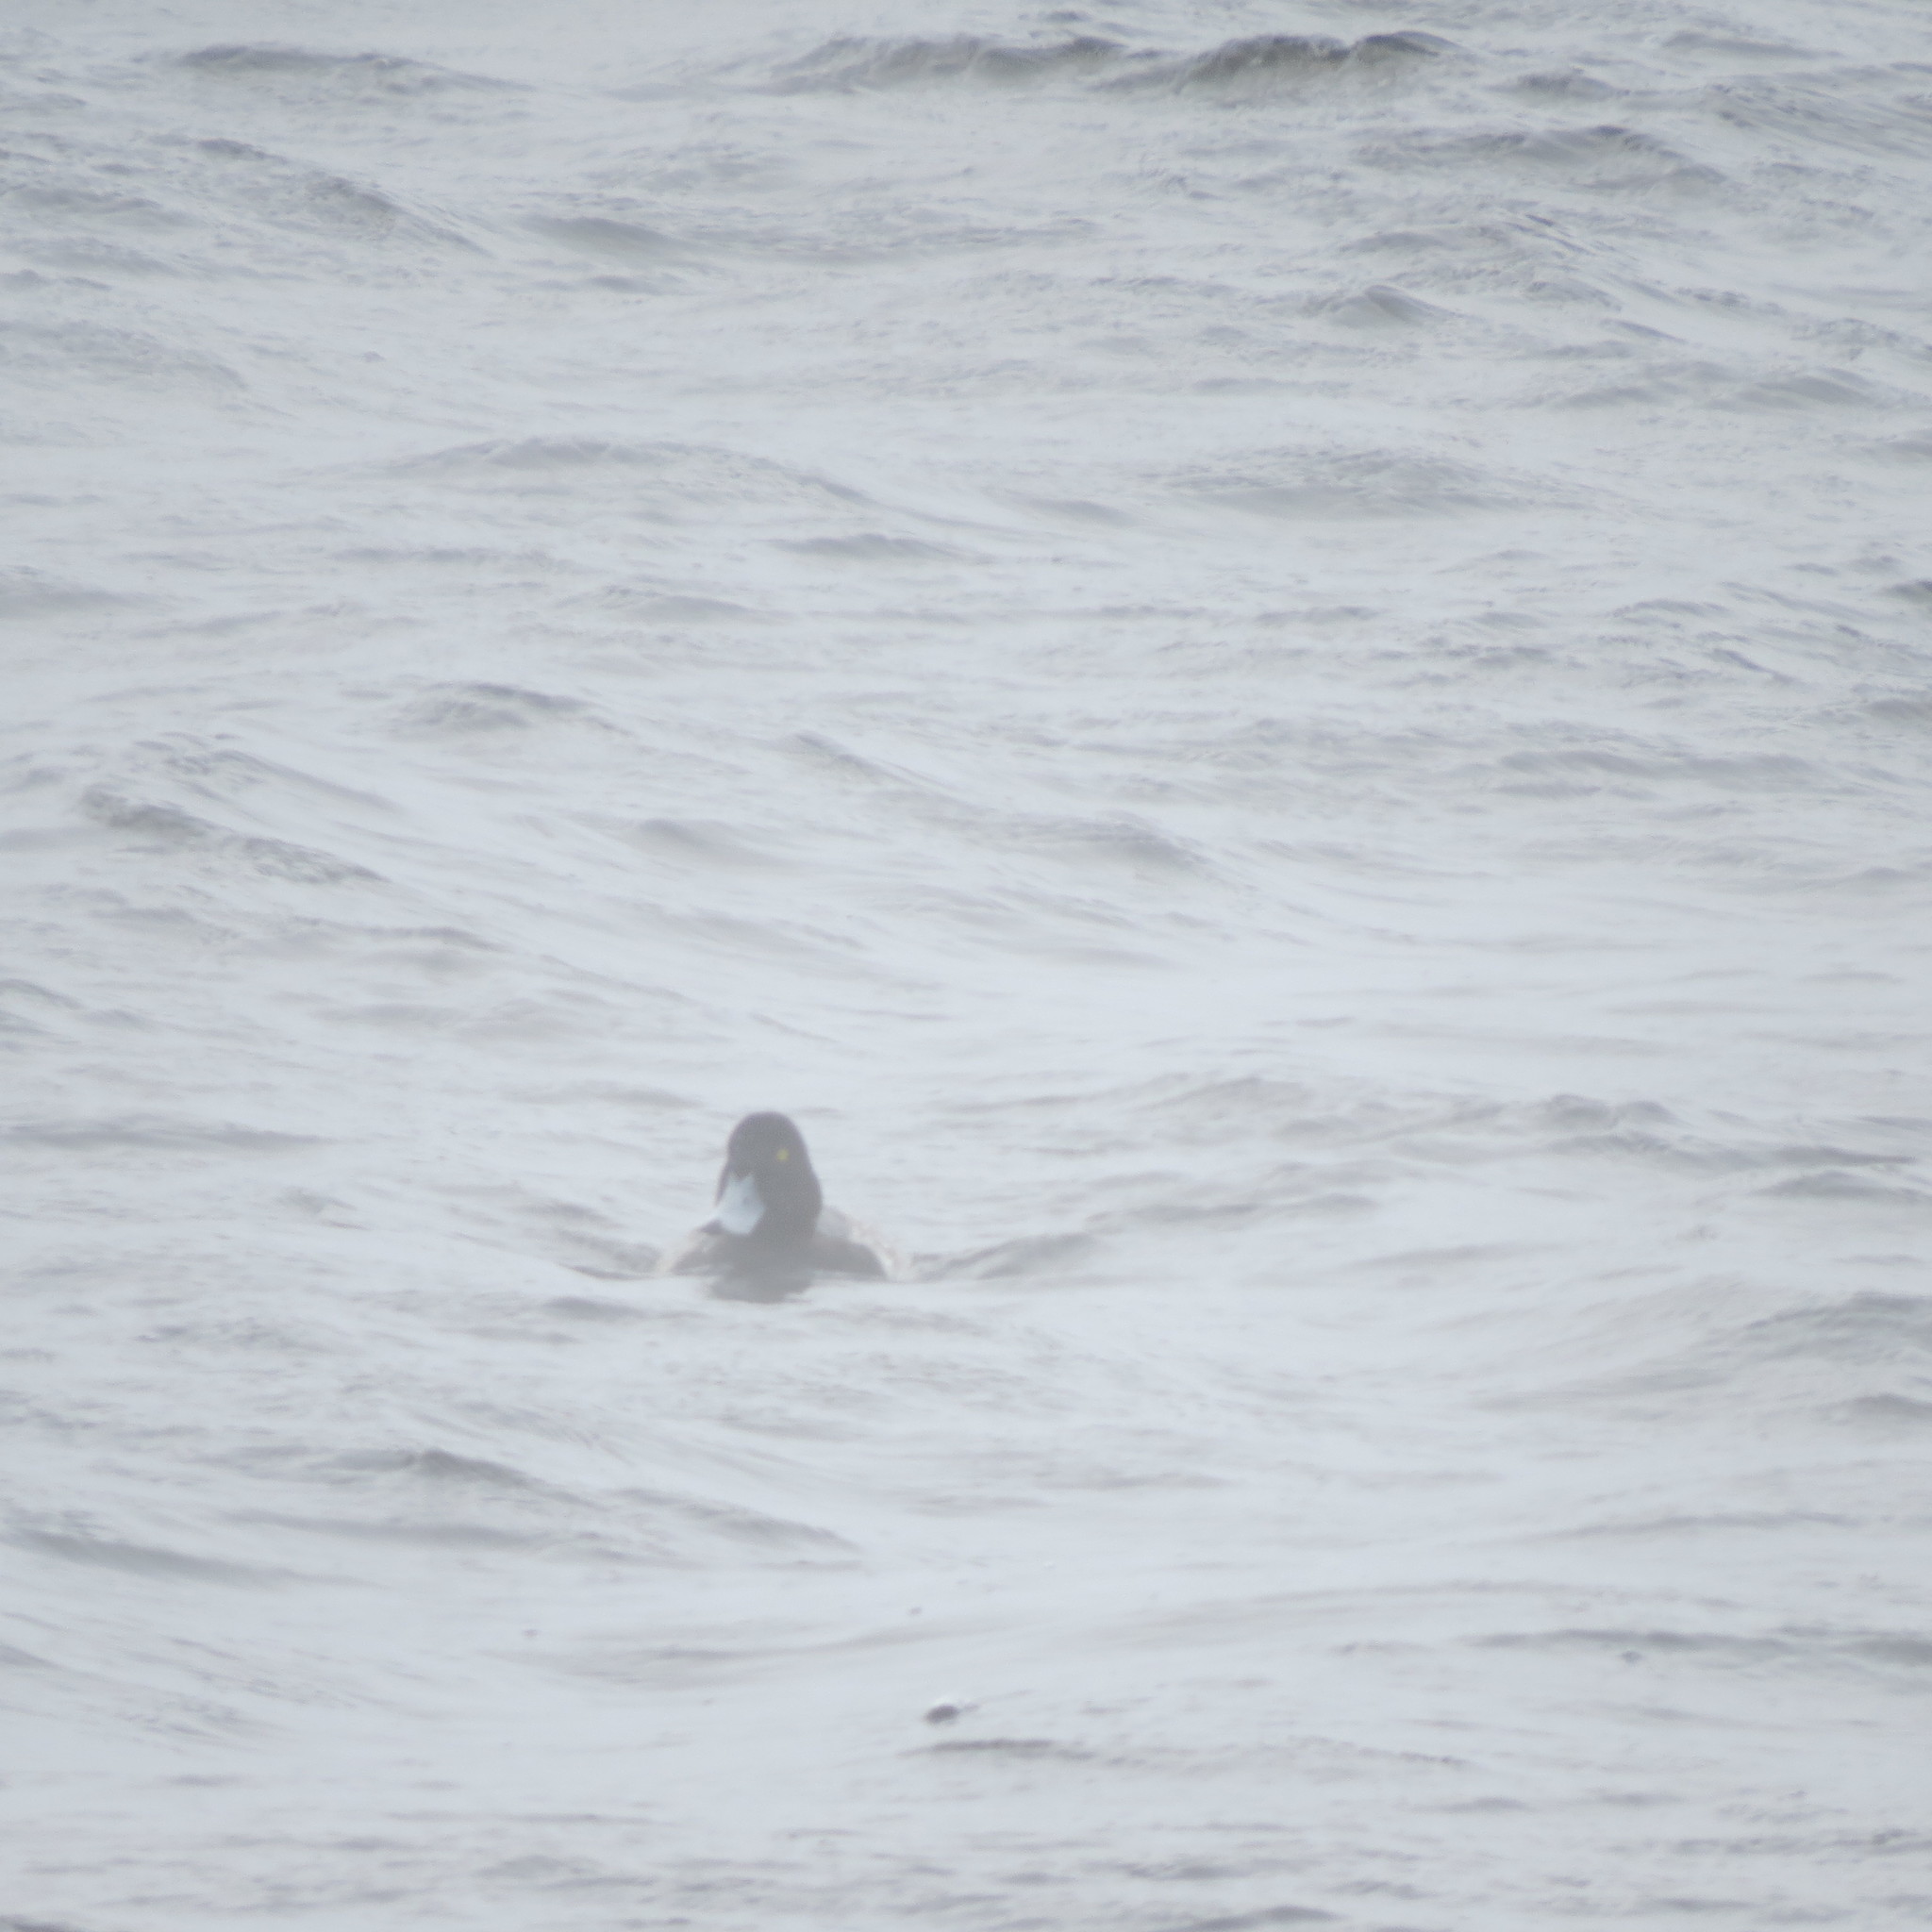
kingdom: Animalia
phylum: Chordata
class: Aves
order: Anseriformes
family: Anatidae
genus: Aythya
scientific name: Aythya marila
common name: Greater scaup
